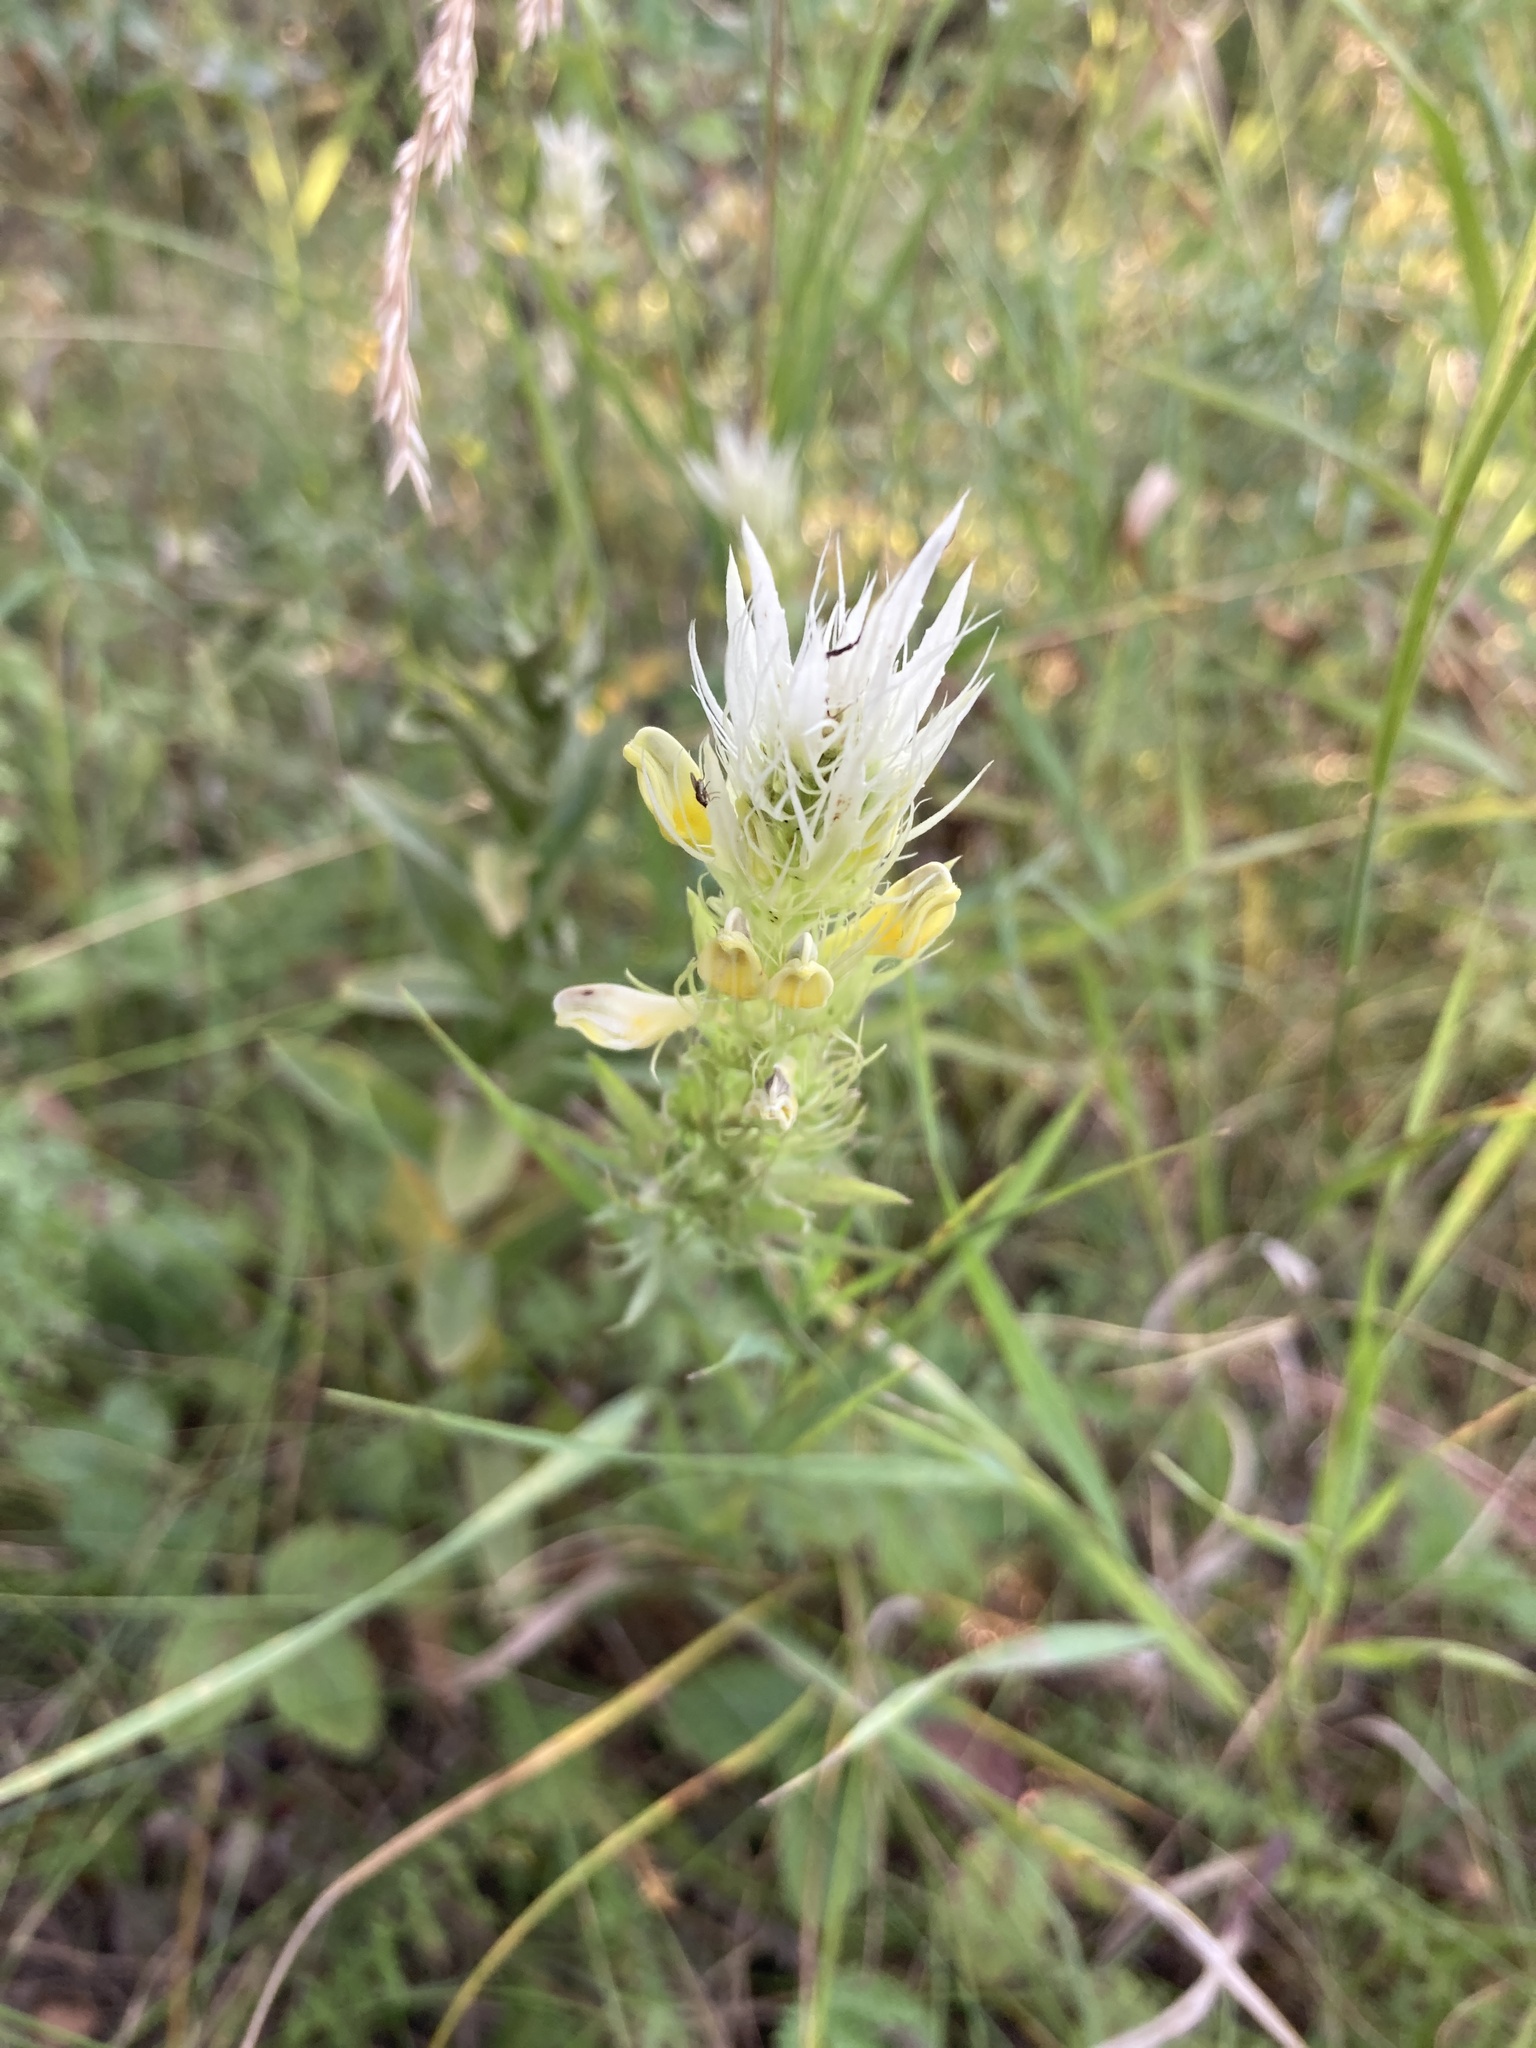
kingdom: Plantae
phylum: Tracheophyta
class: Magnoliopsida
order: Lamiales
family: Orobanchaceae
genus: Melampyrum
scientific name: Melampyrum arvense
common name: Field cow-wheat
